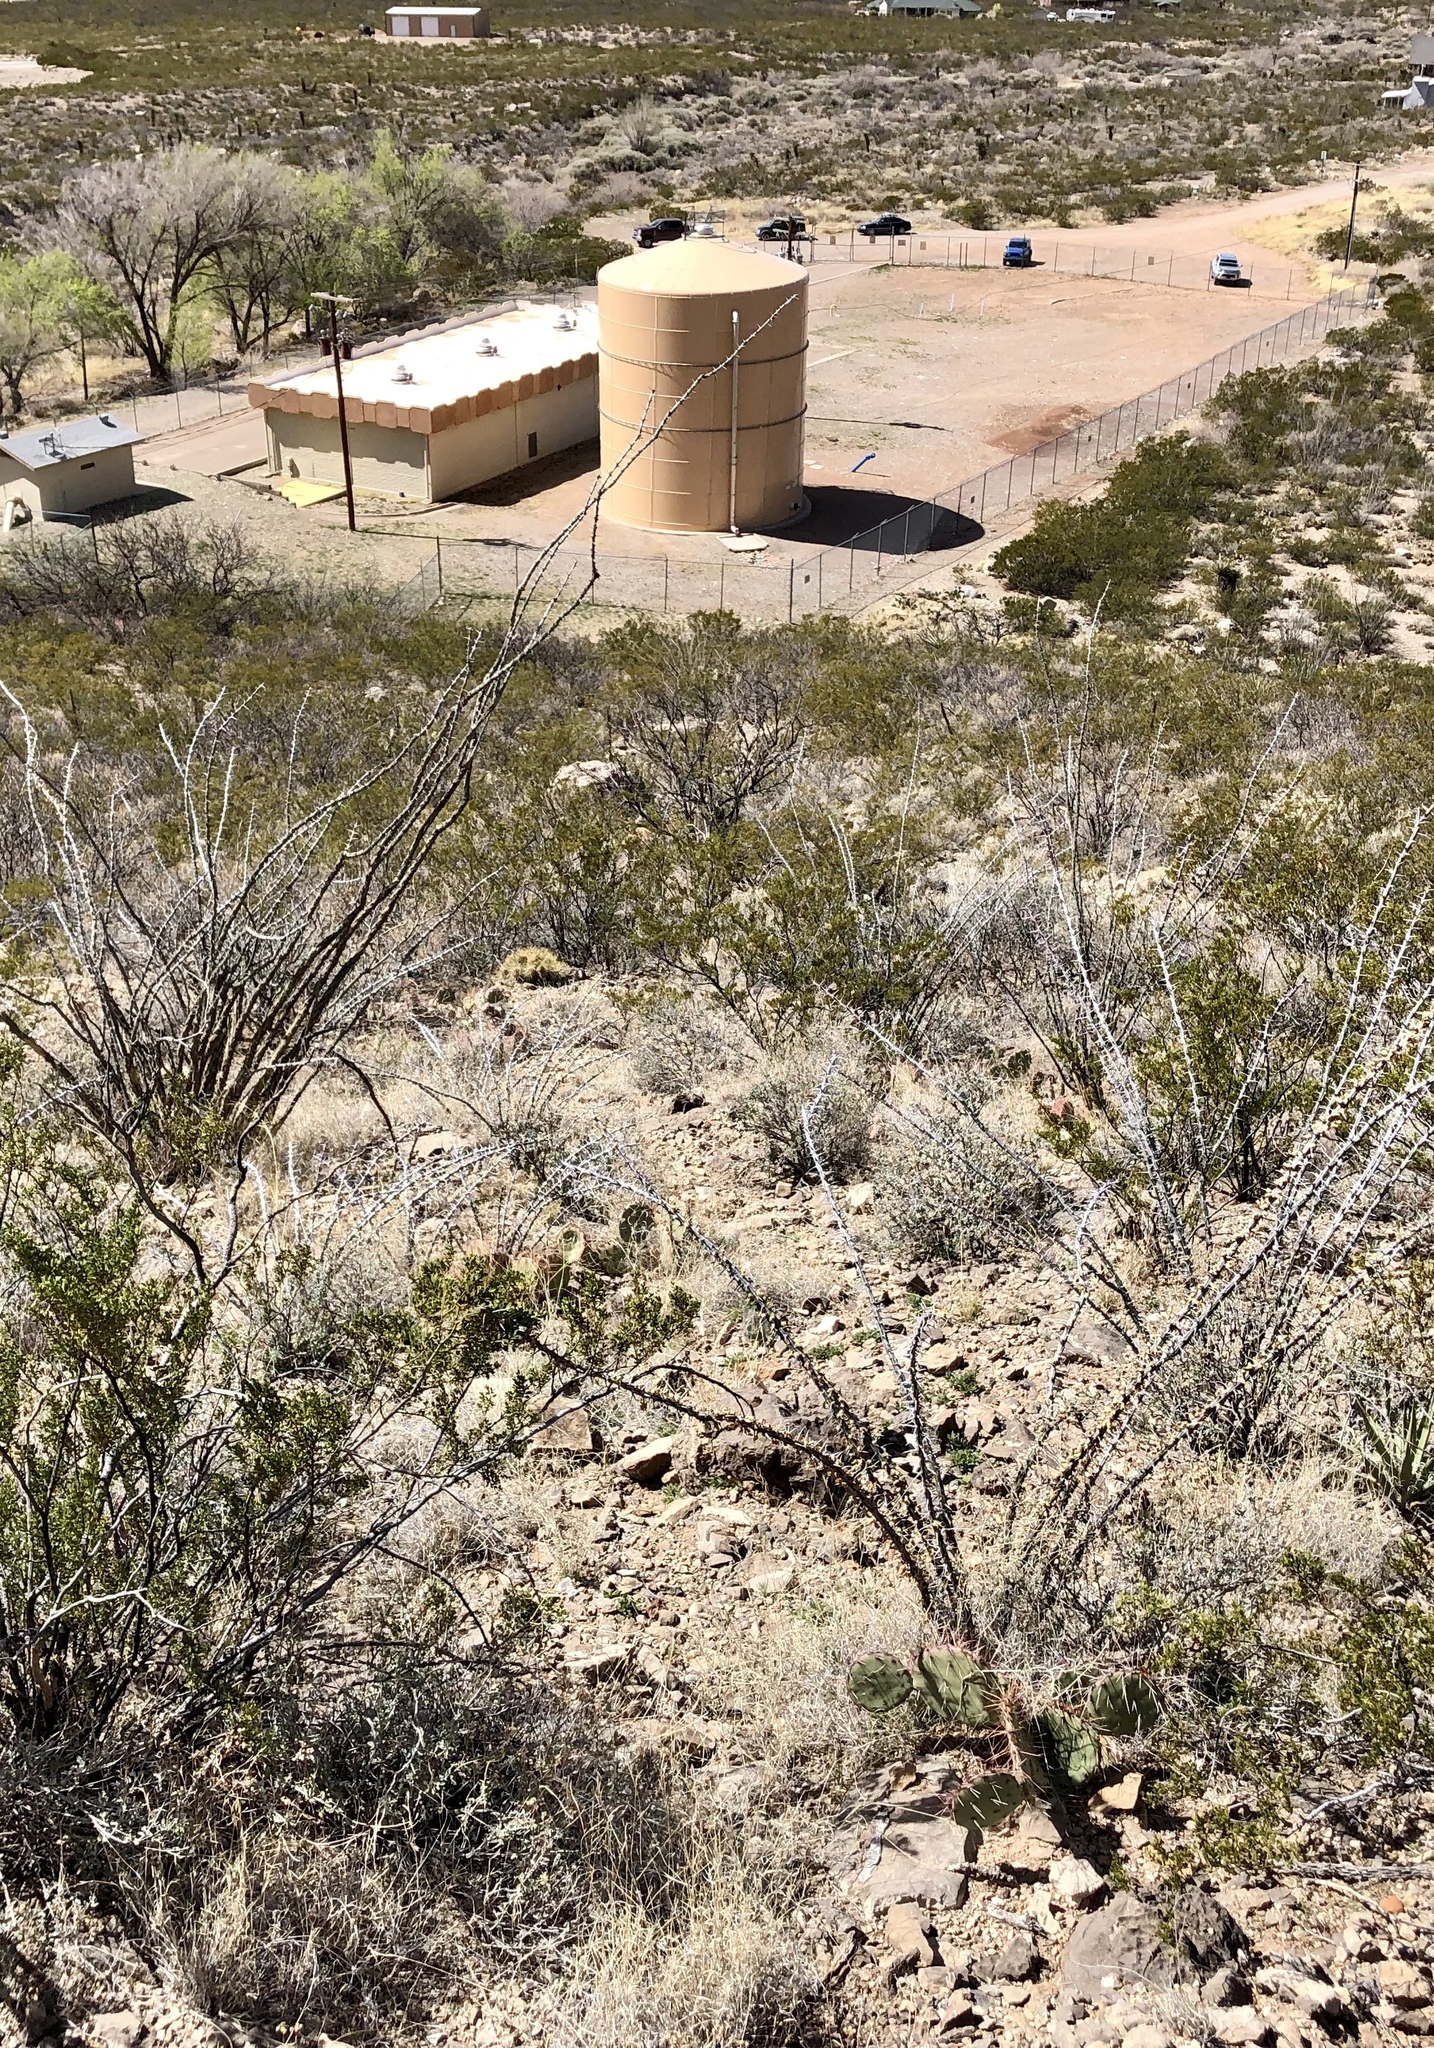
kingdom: Plantae
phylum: Tracheophyta
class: Magnoliopsida
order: Ericales
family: Fouquieriaceae
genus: Fouquieria
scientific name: Fouquieria splendens
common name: Vine-cactus
